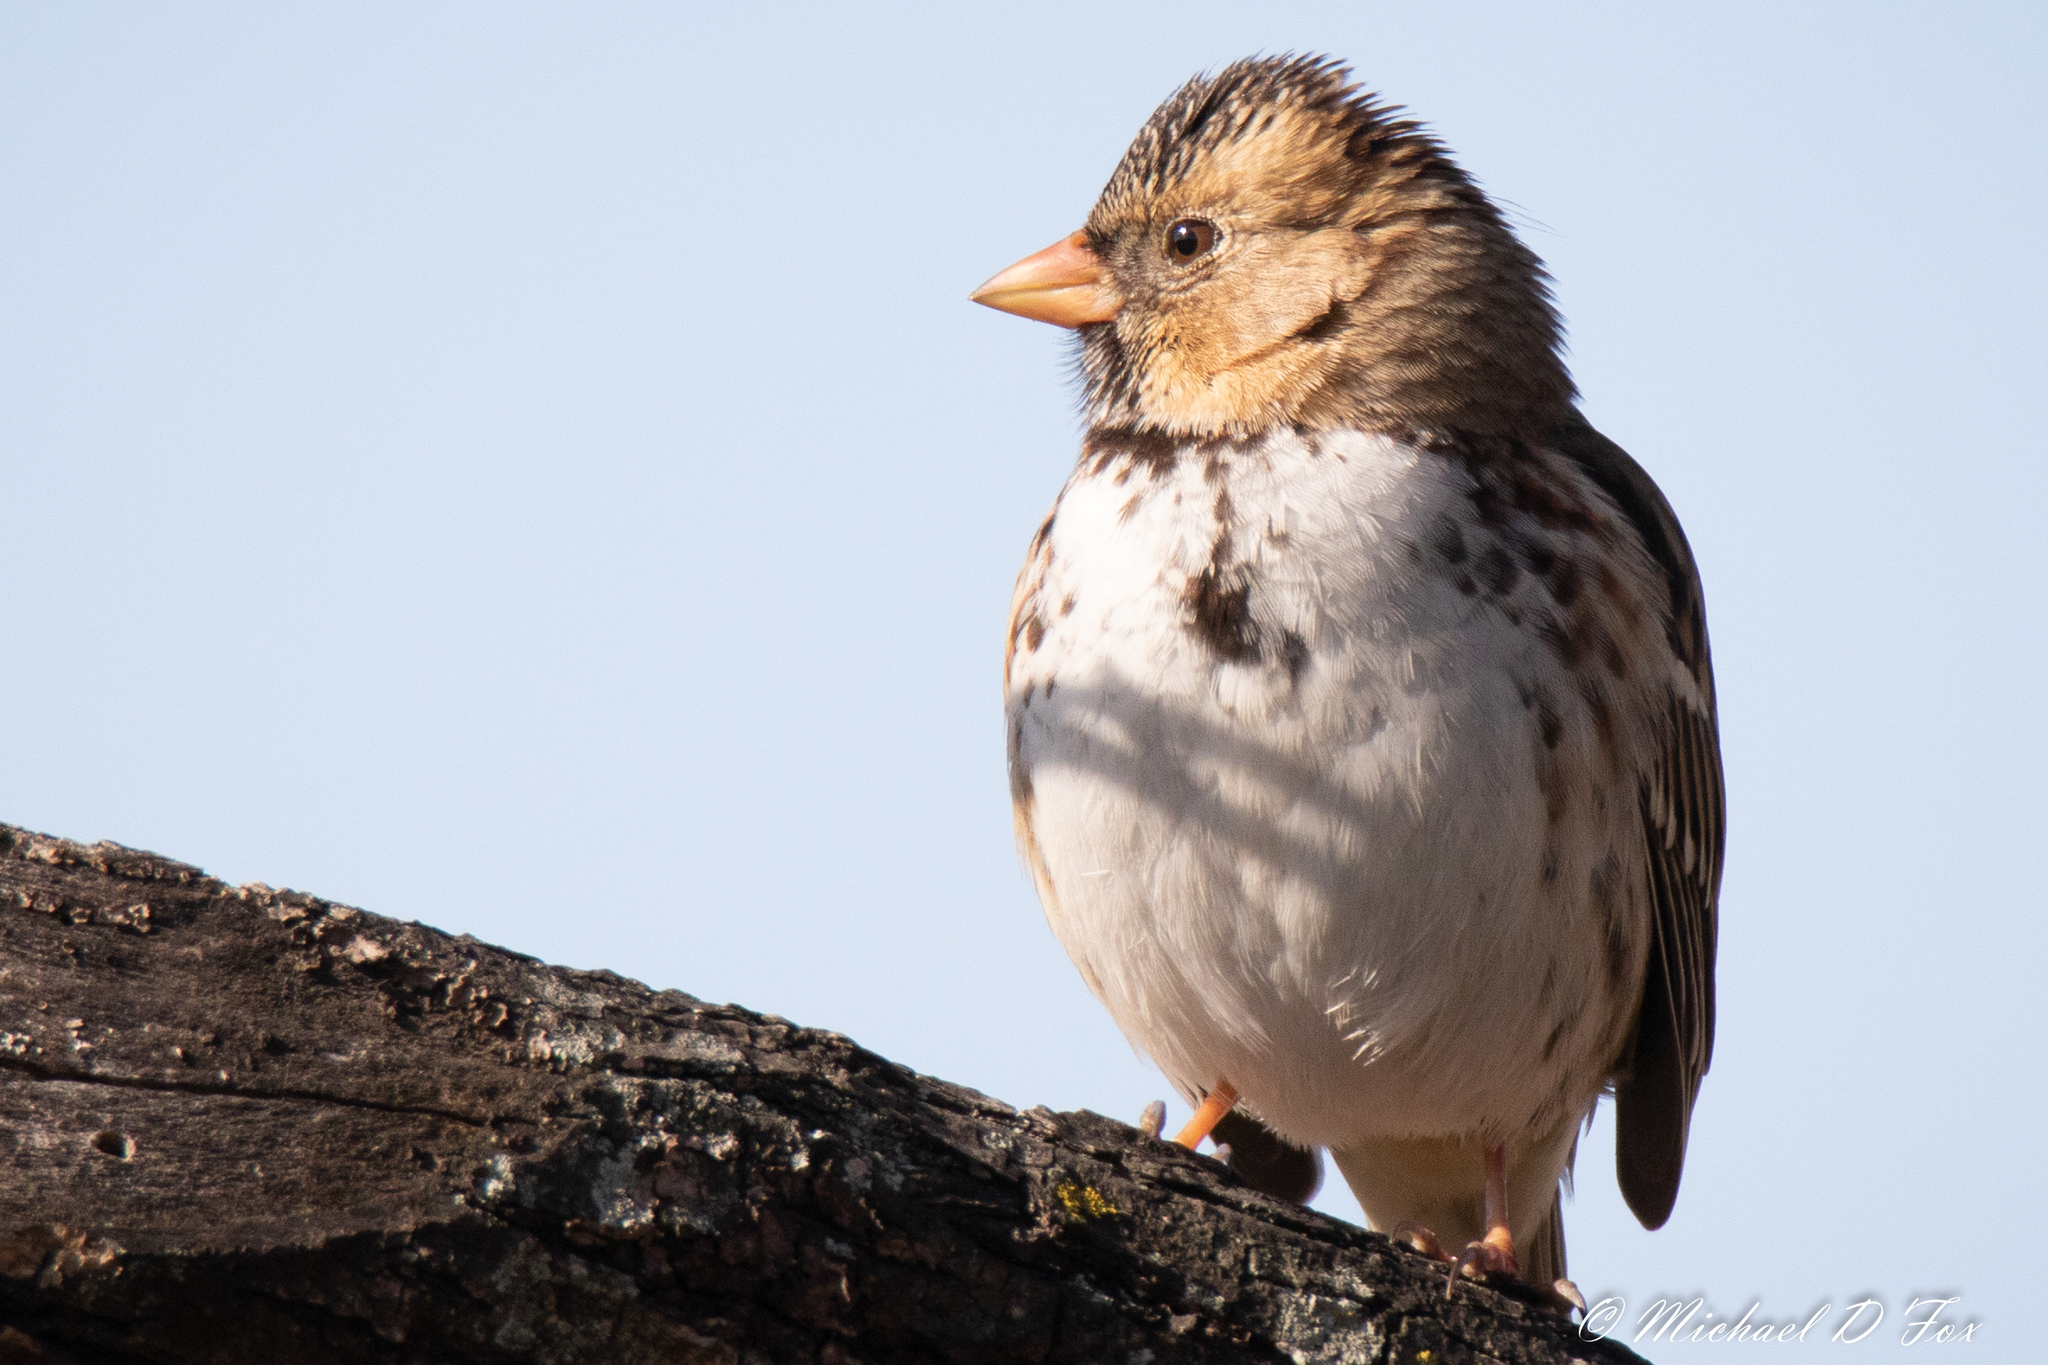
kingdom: Animalia
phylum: Chordata
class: Aves
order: Passeriformes
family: Passerellidae
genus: Zonotrichia
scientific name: Zonotrichia querula
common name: Harris's sparrow
